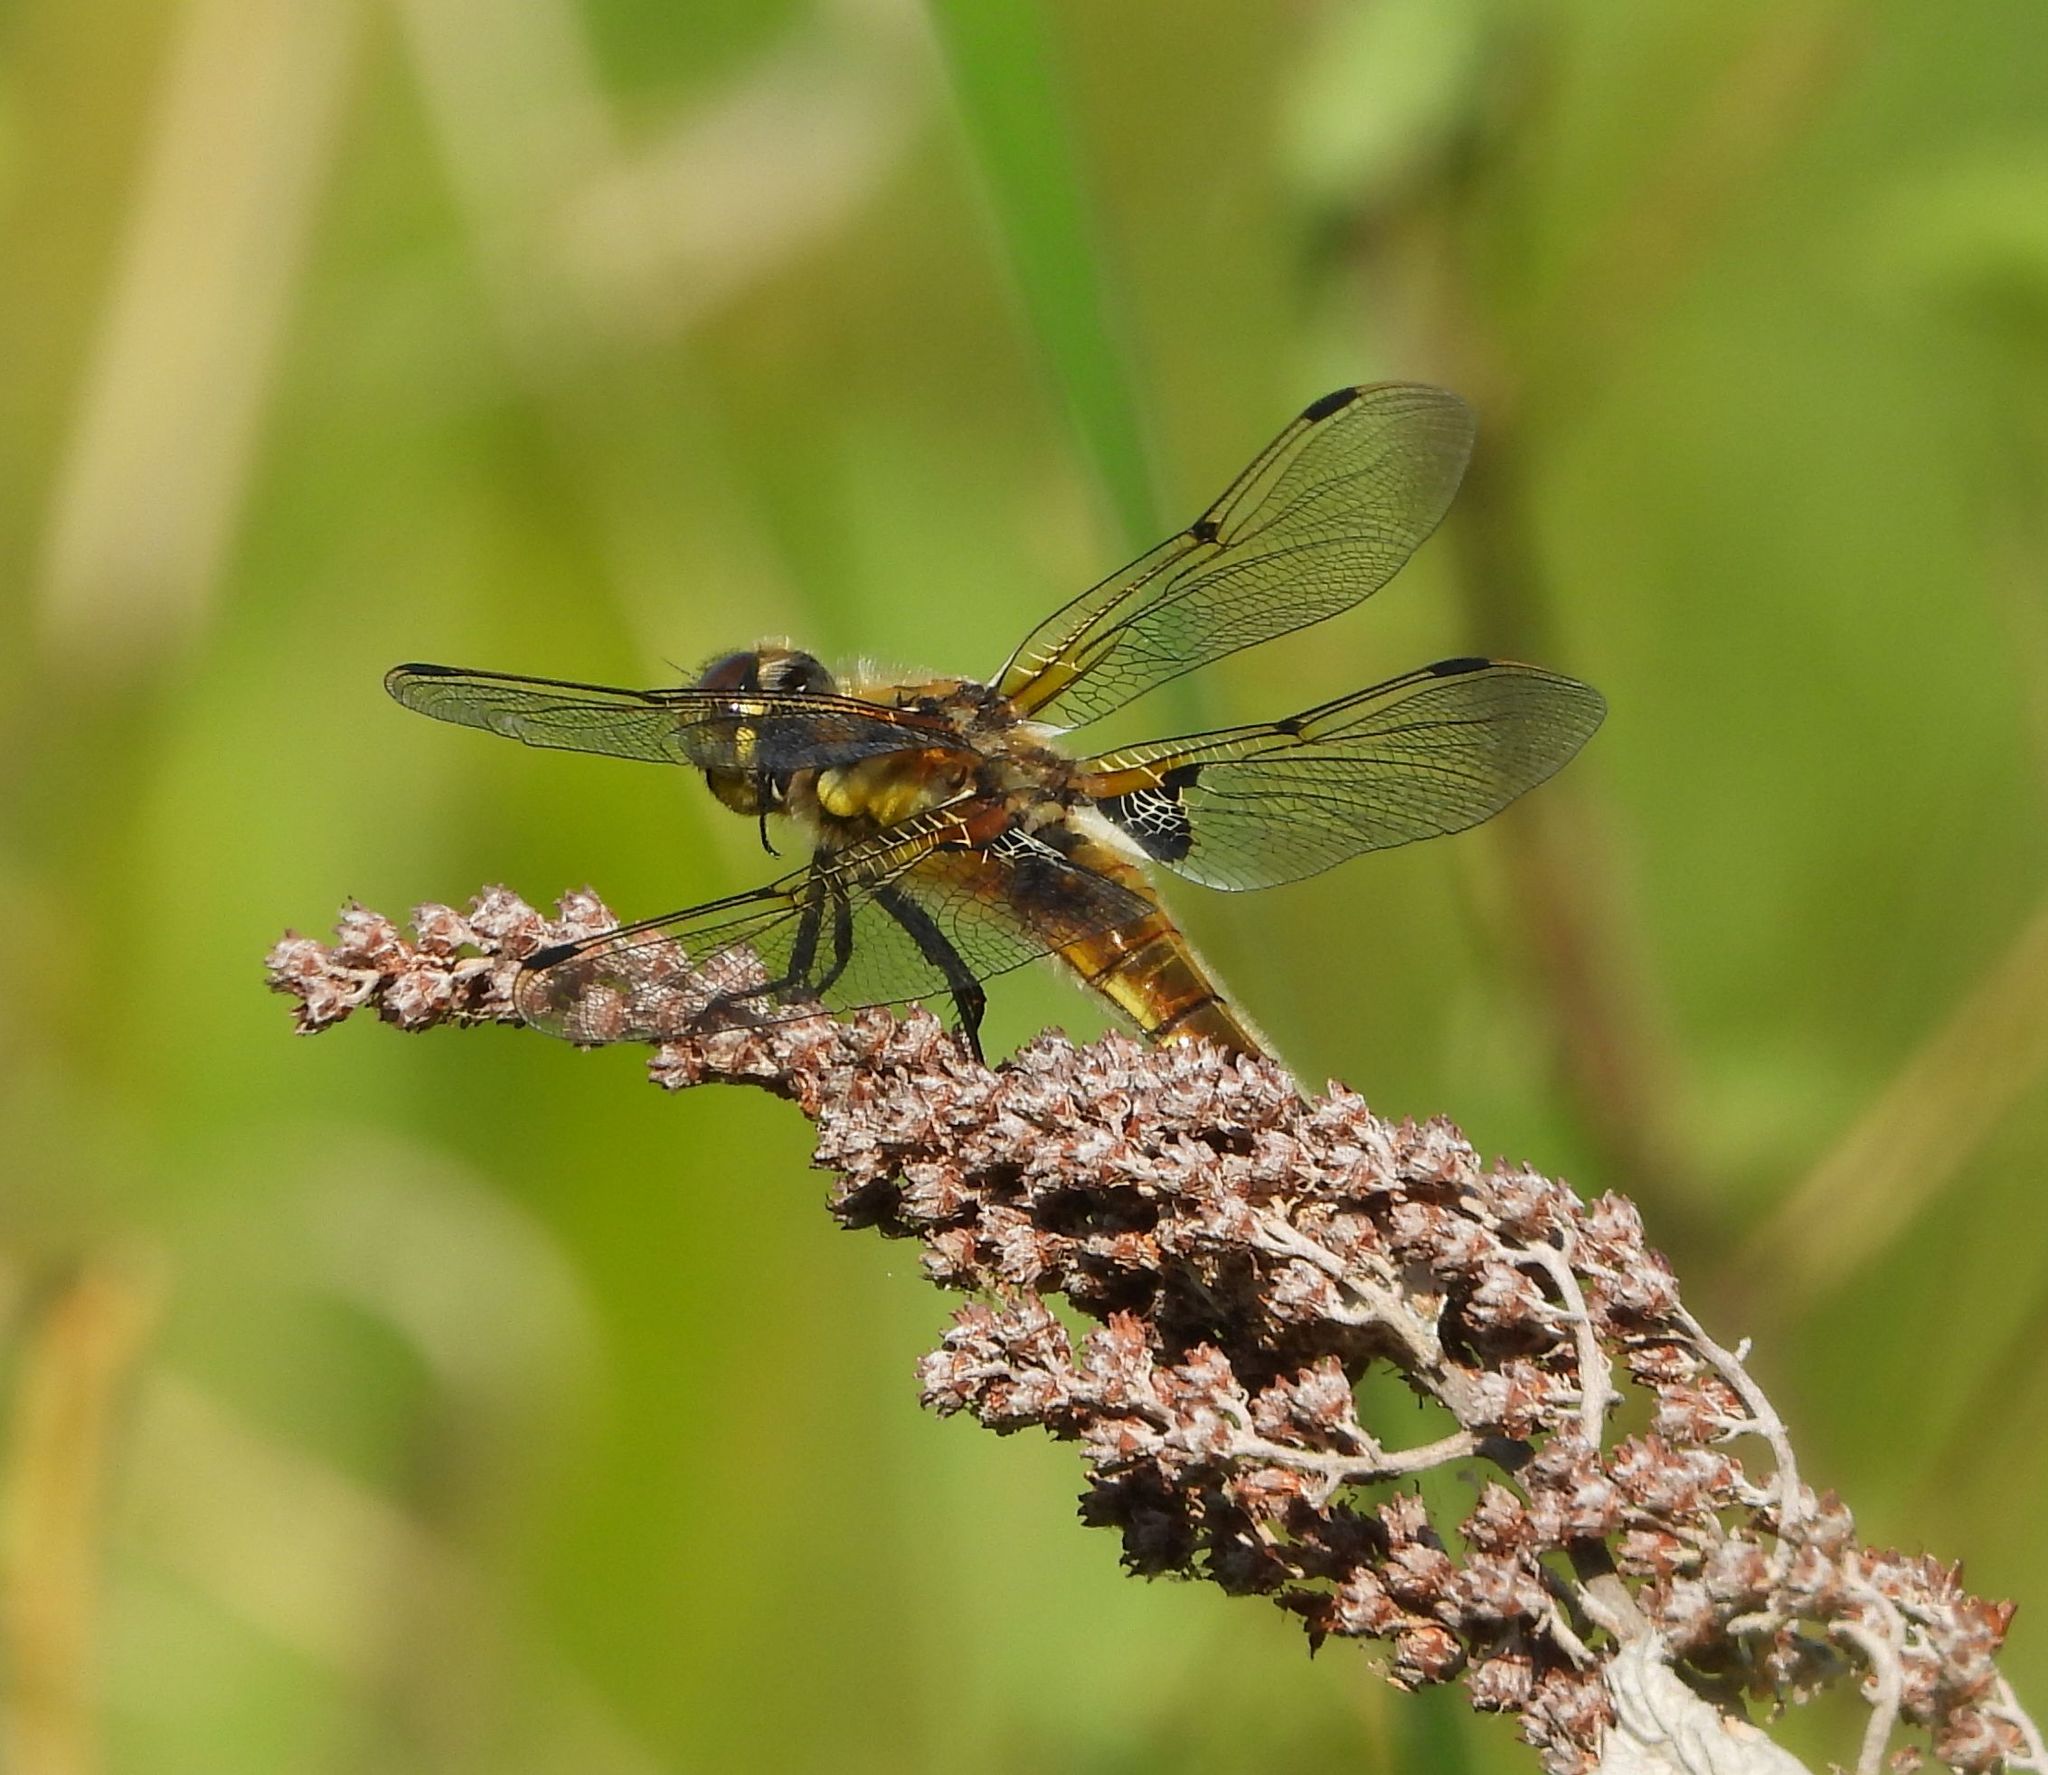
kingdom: Animalia
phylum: Arthropoda
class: Insecta
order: Odonata
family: Libellulidae
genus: Libellula
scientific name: Libellula quadrimaculata
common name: Four-spotted chaser
